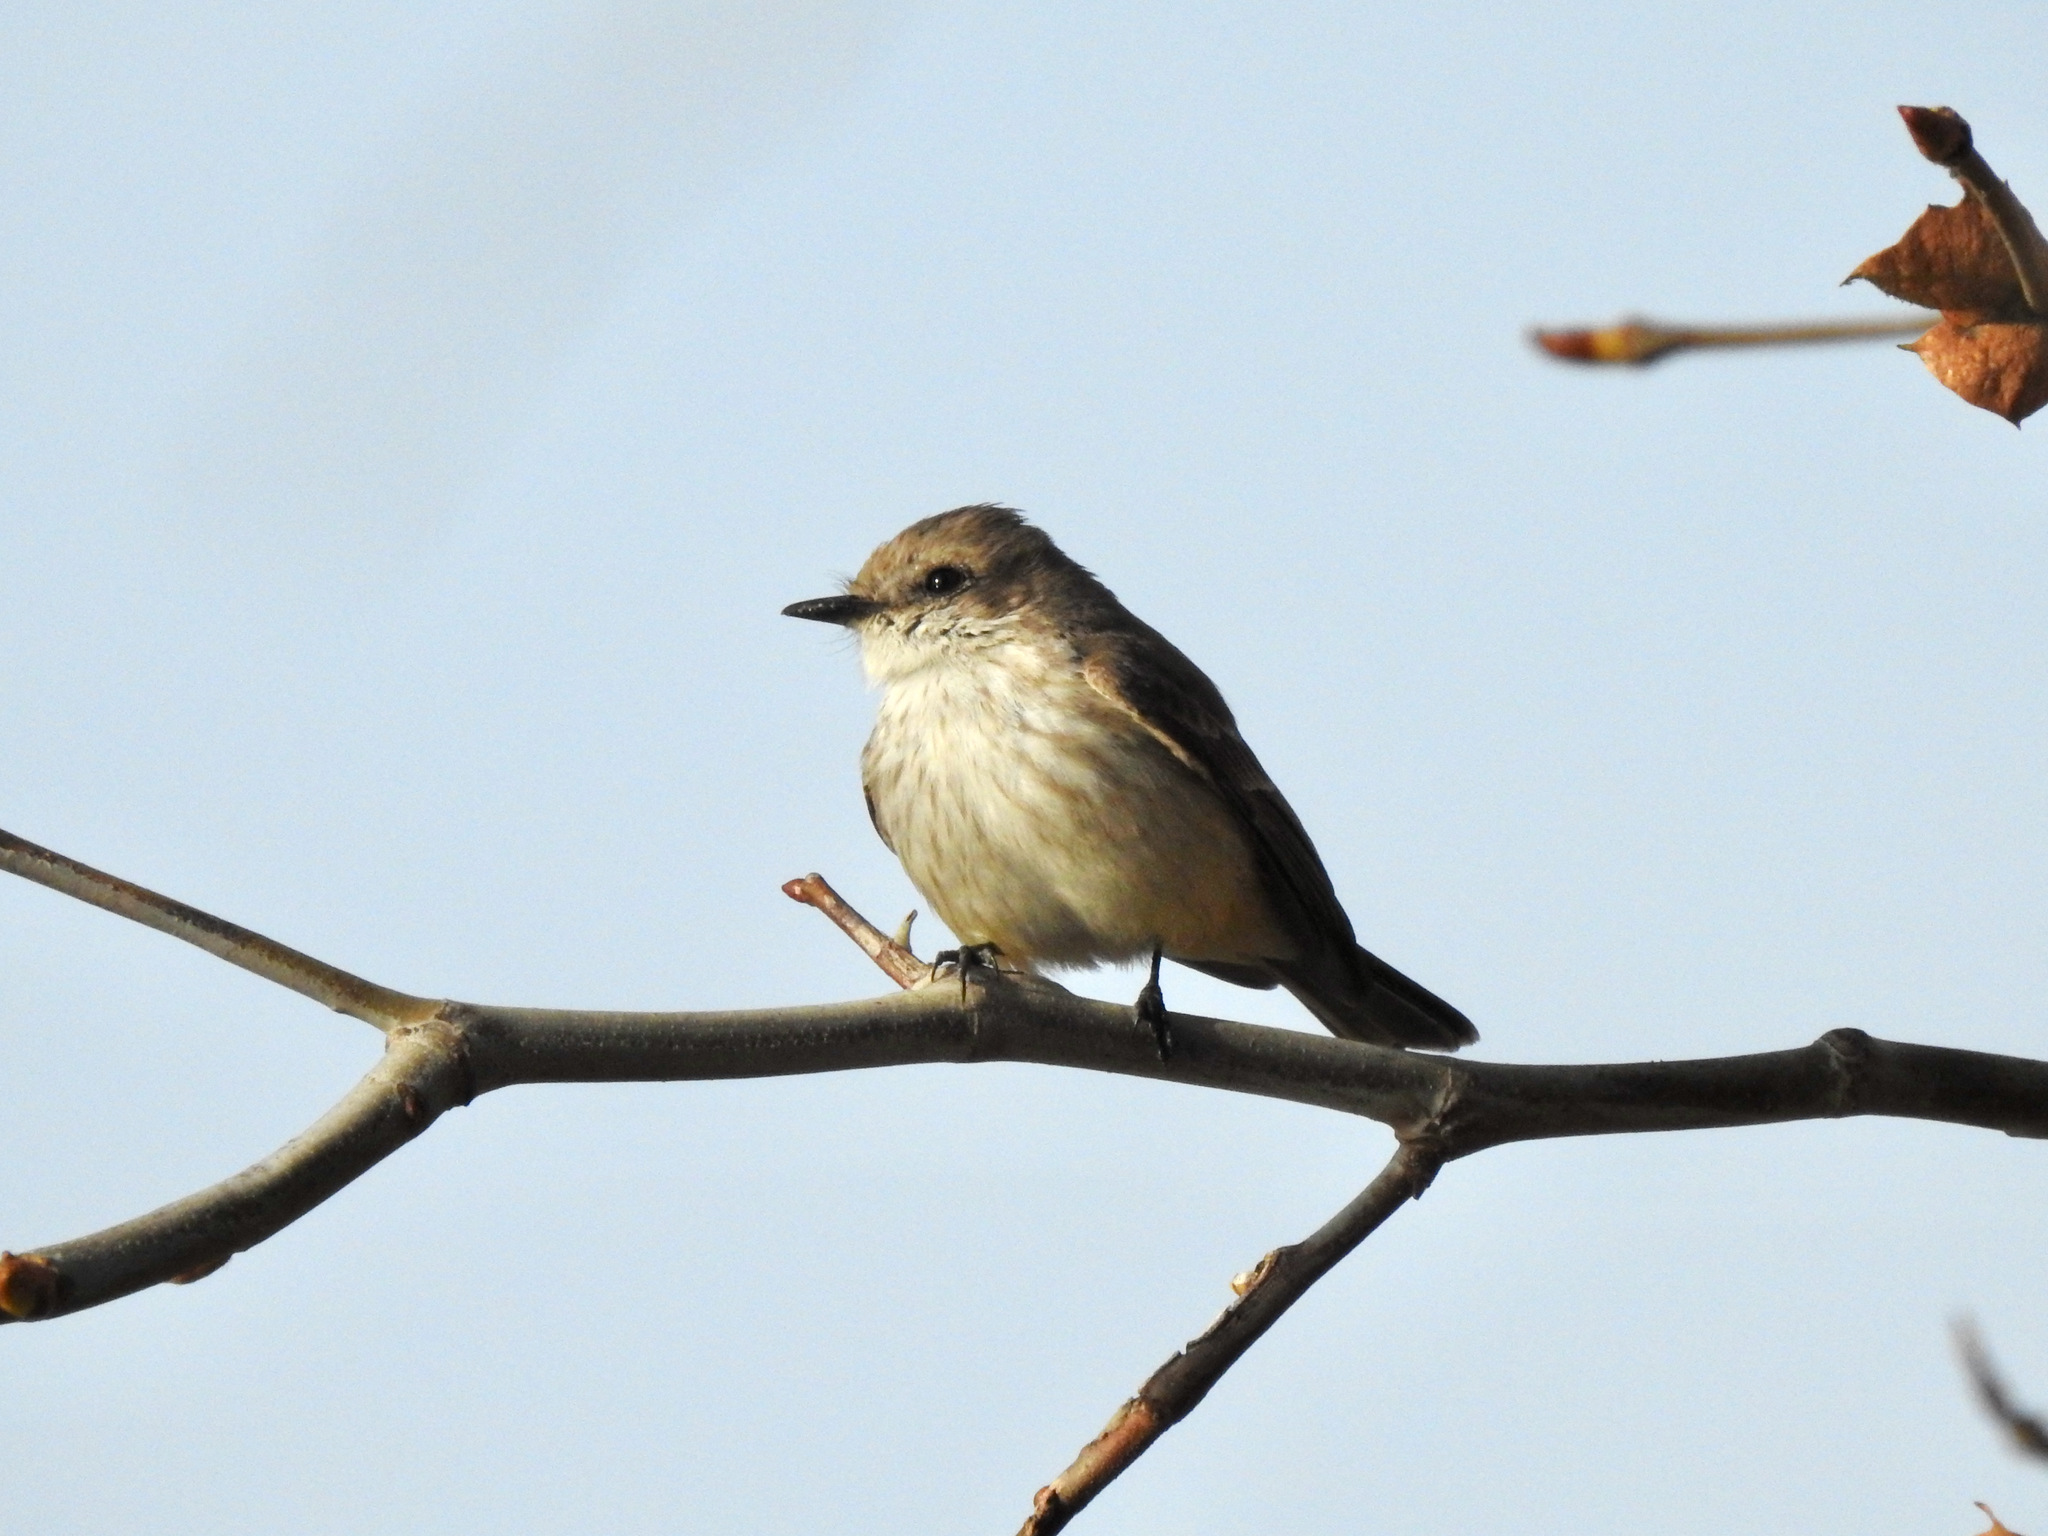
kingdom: Animalia
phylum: Chordata
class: Aves
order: Passeriformes
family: Tyrannidae
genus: Pyrocephalus
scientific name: Pyrocephalus rubinus
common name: Vermilion flycatcher
